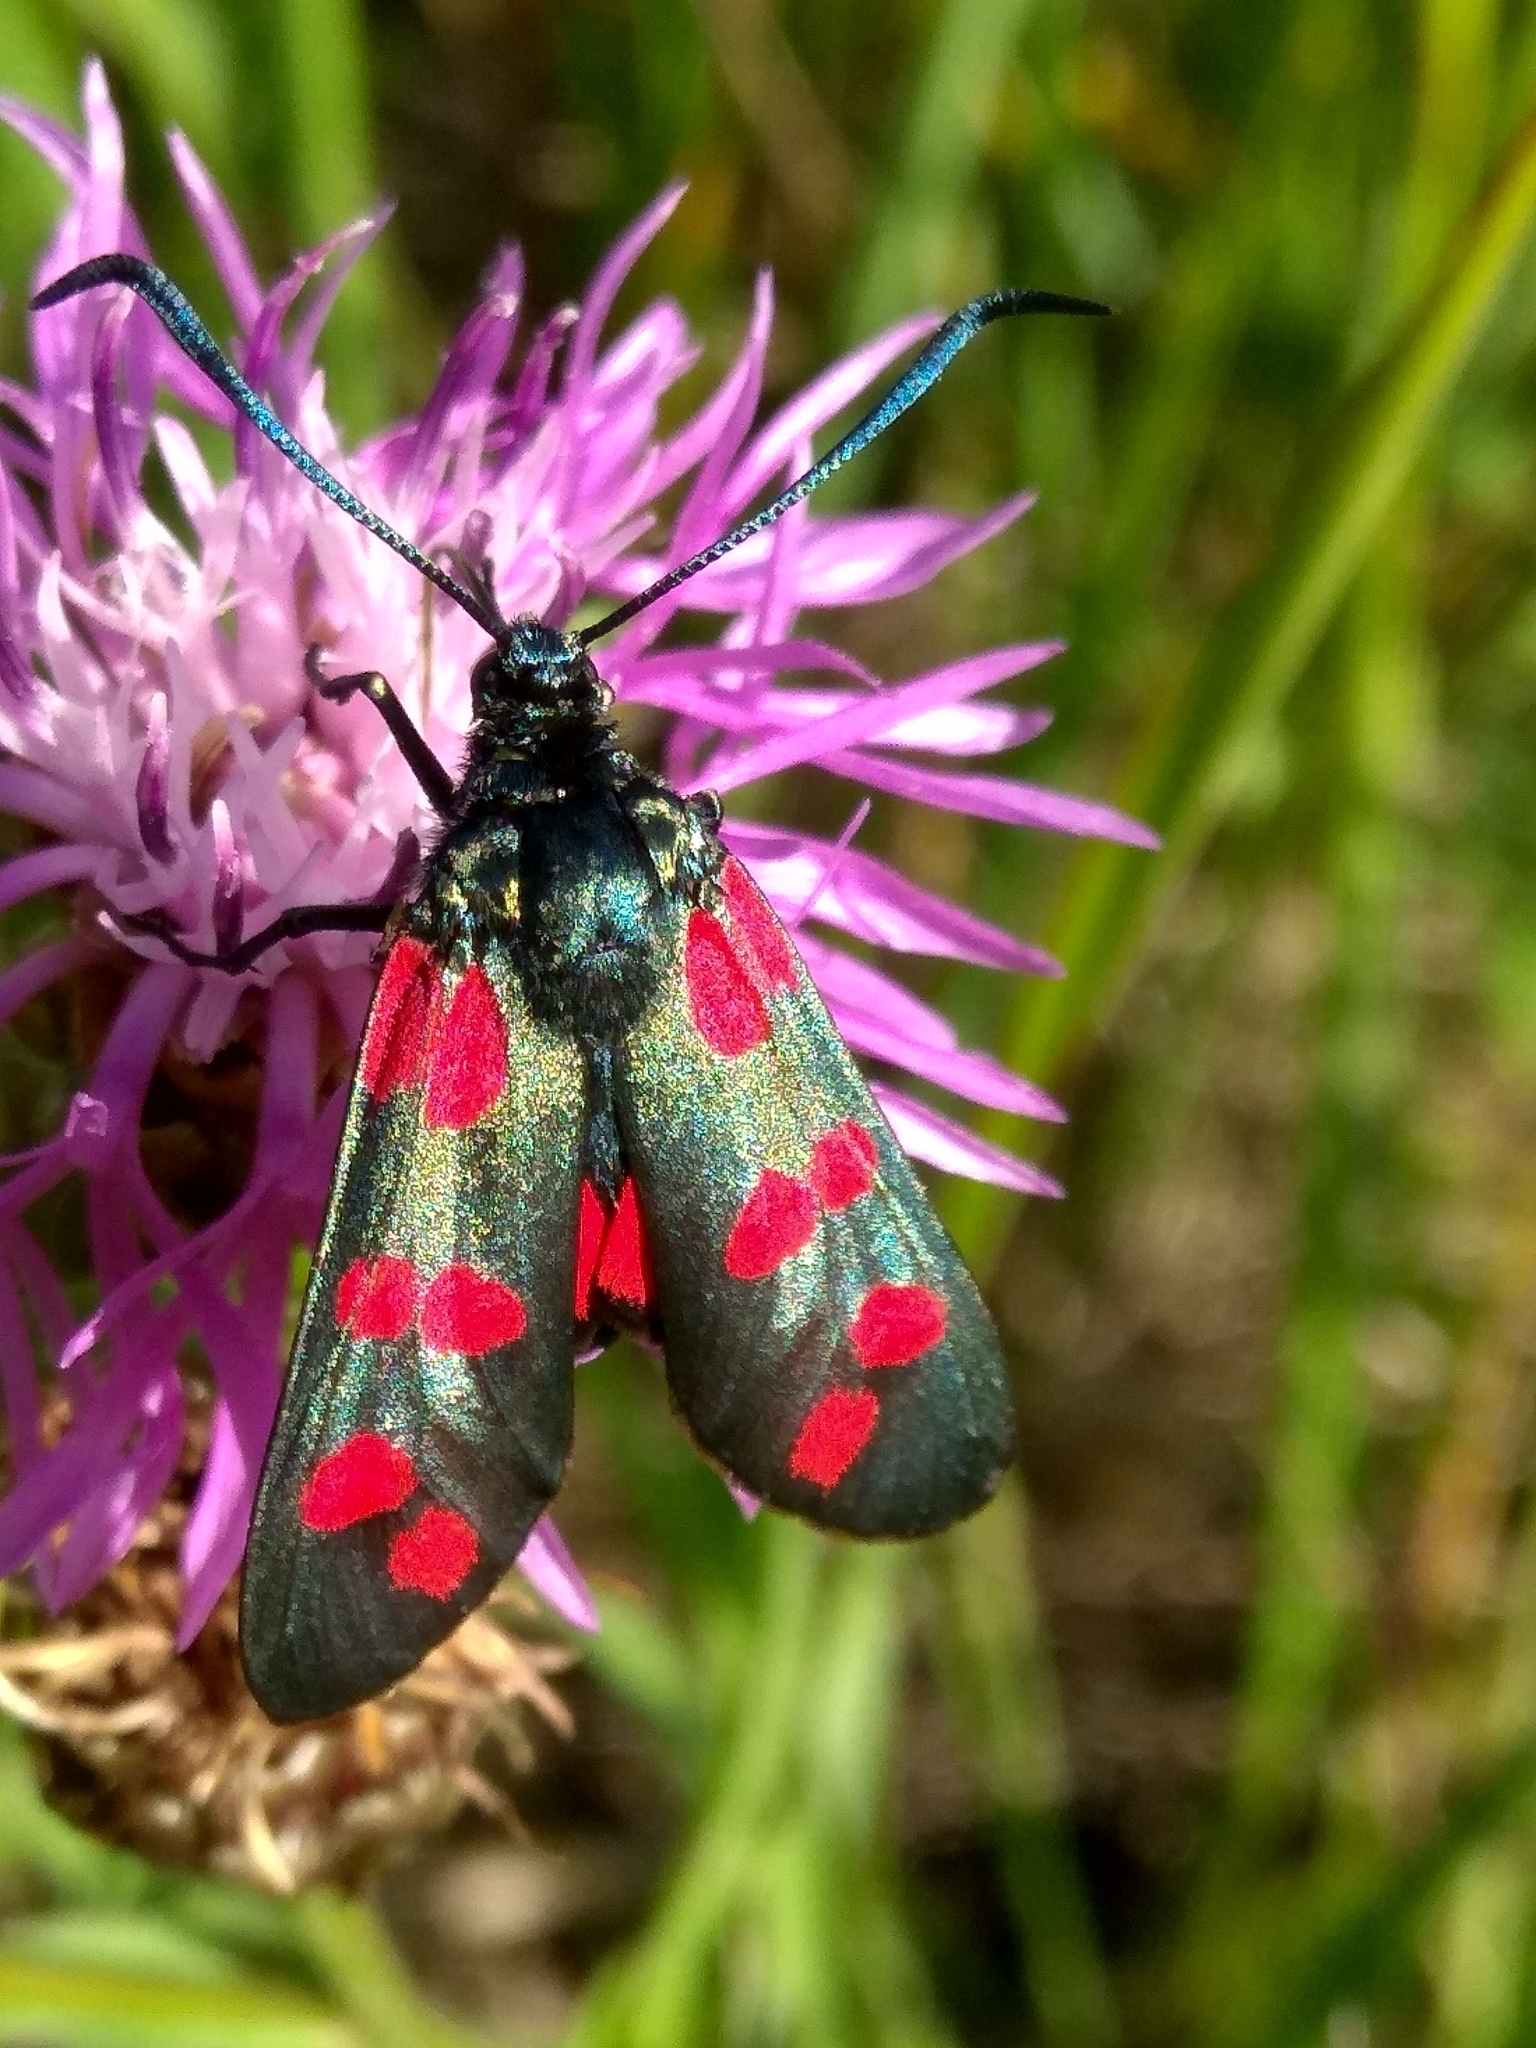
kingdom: Animalia
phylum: Arthropoda
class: Insecta
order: Lepidoptera
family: Zygaenidae
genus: Zygaena
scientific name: Zygaena filipendulae
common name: Six-spot burnet
